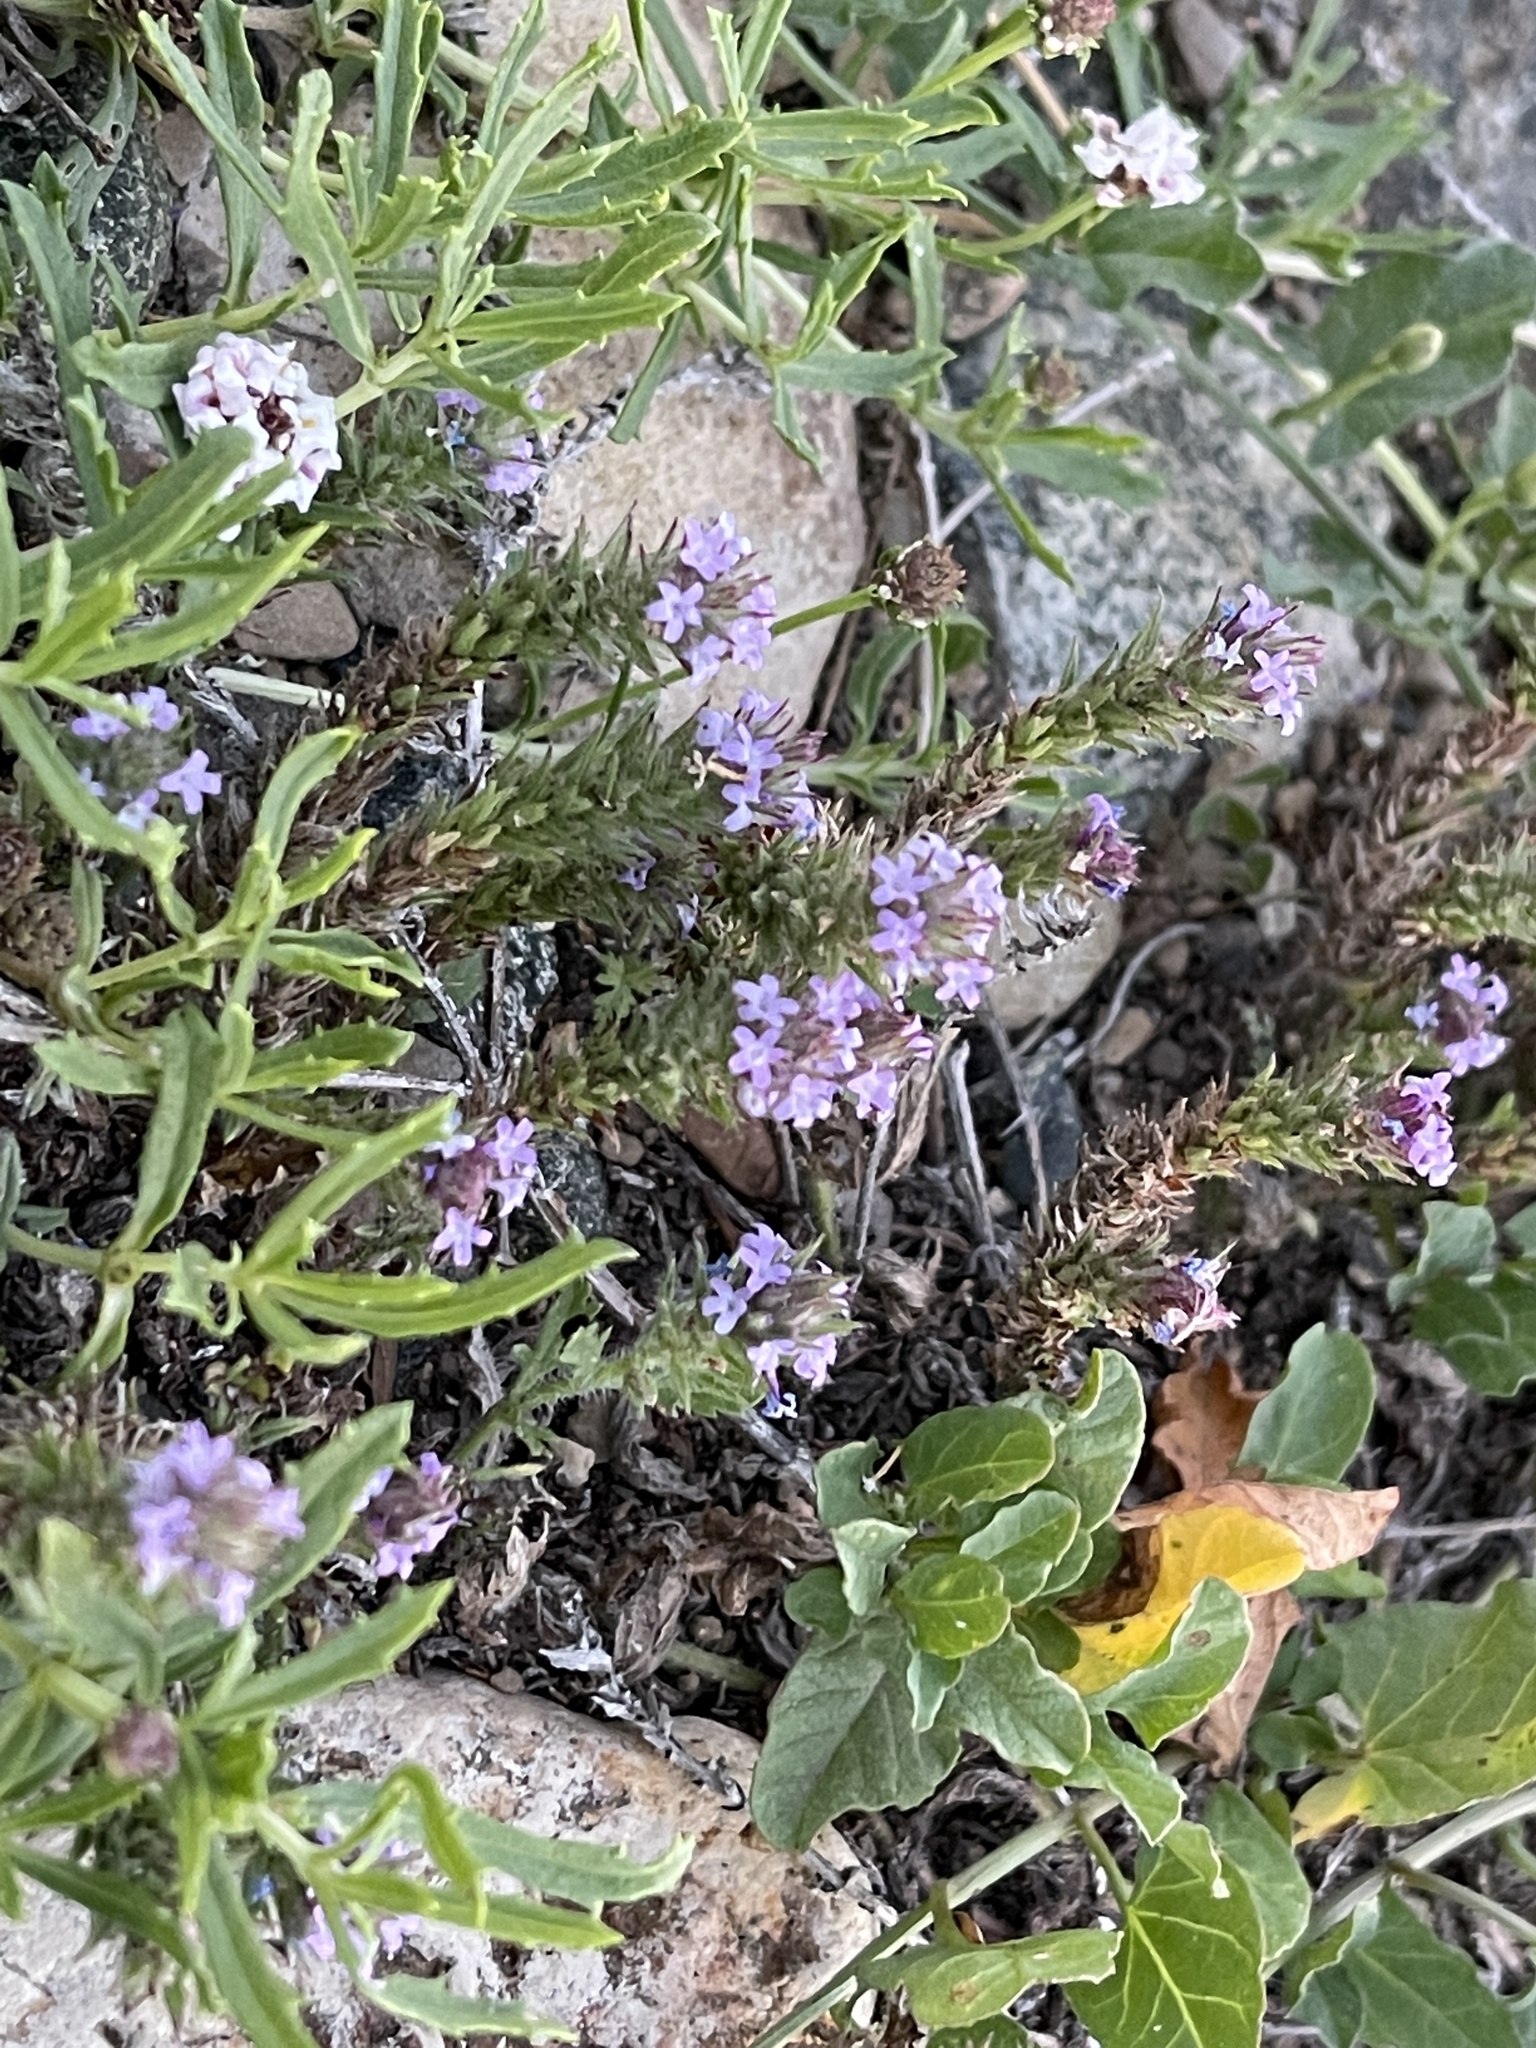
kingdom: Plantae
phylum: Tracheophyta
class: Magnoliopsida
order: Lamiales
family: Verbenaceae
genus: Verbena
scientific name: Verbena bracteata
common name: Bracted vervain
